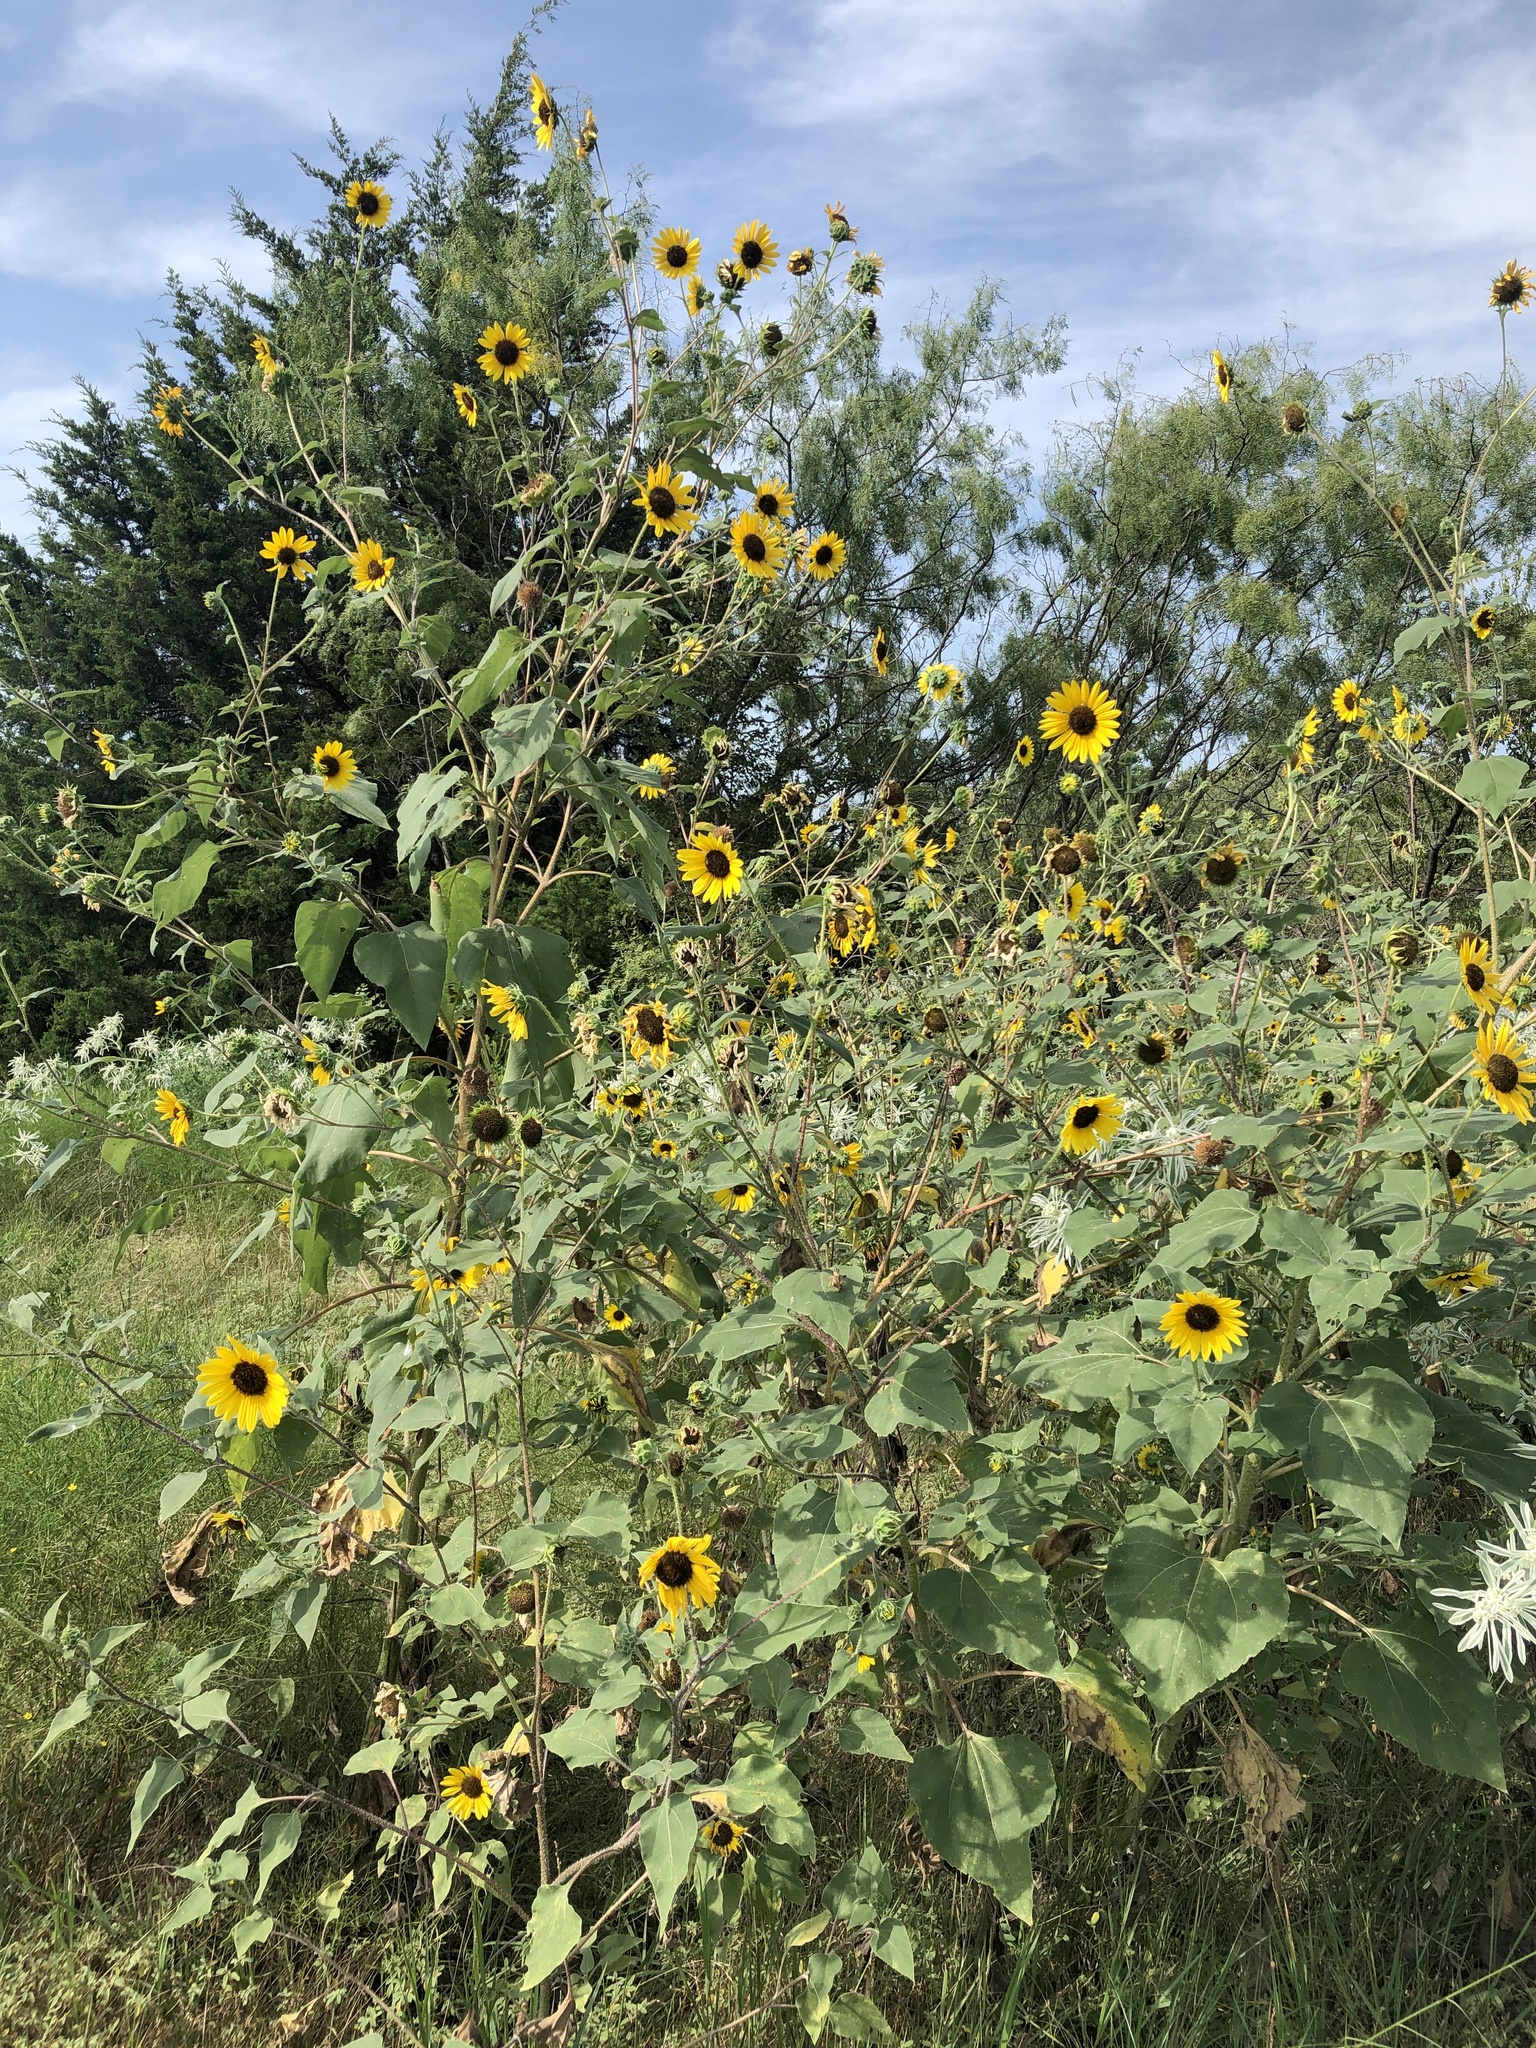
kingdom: Plantae
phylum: Tracheophyta
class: Magnoliopsida
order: Asterales
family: Asteraceae
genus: Helianthus
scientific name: Helianthus annuus
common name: Sunflower
